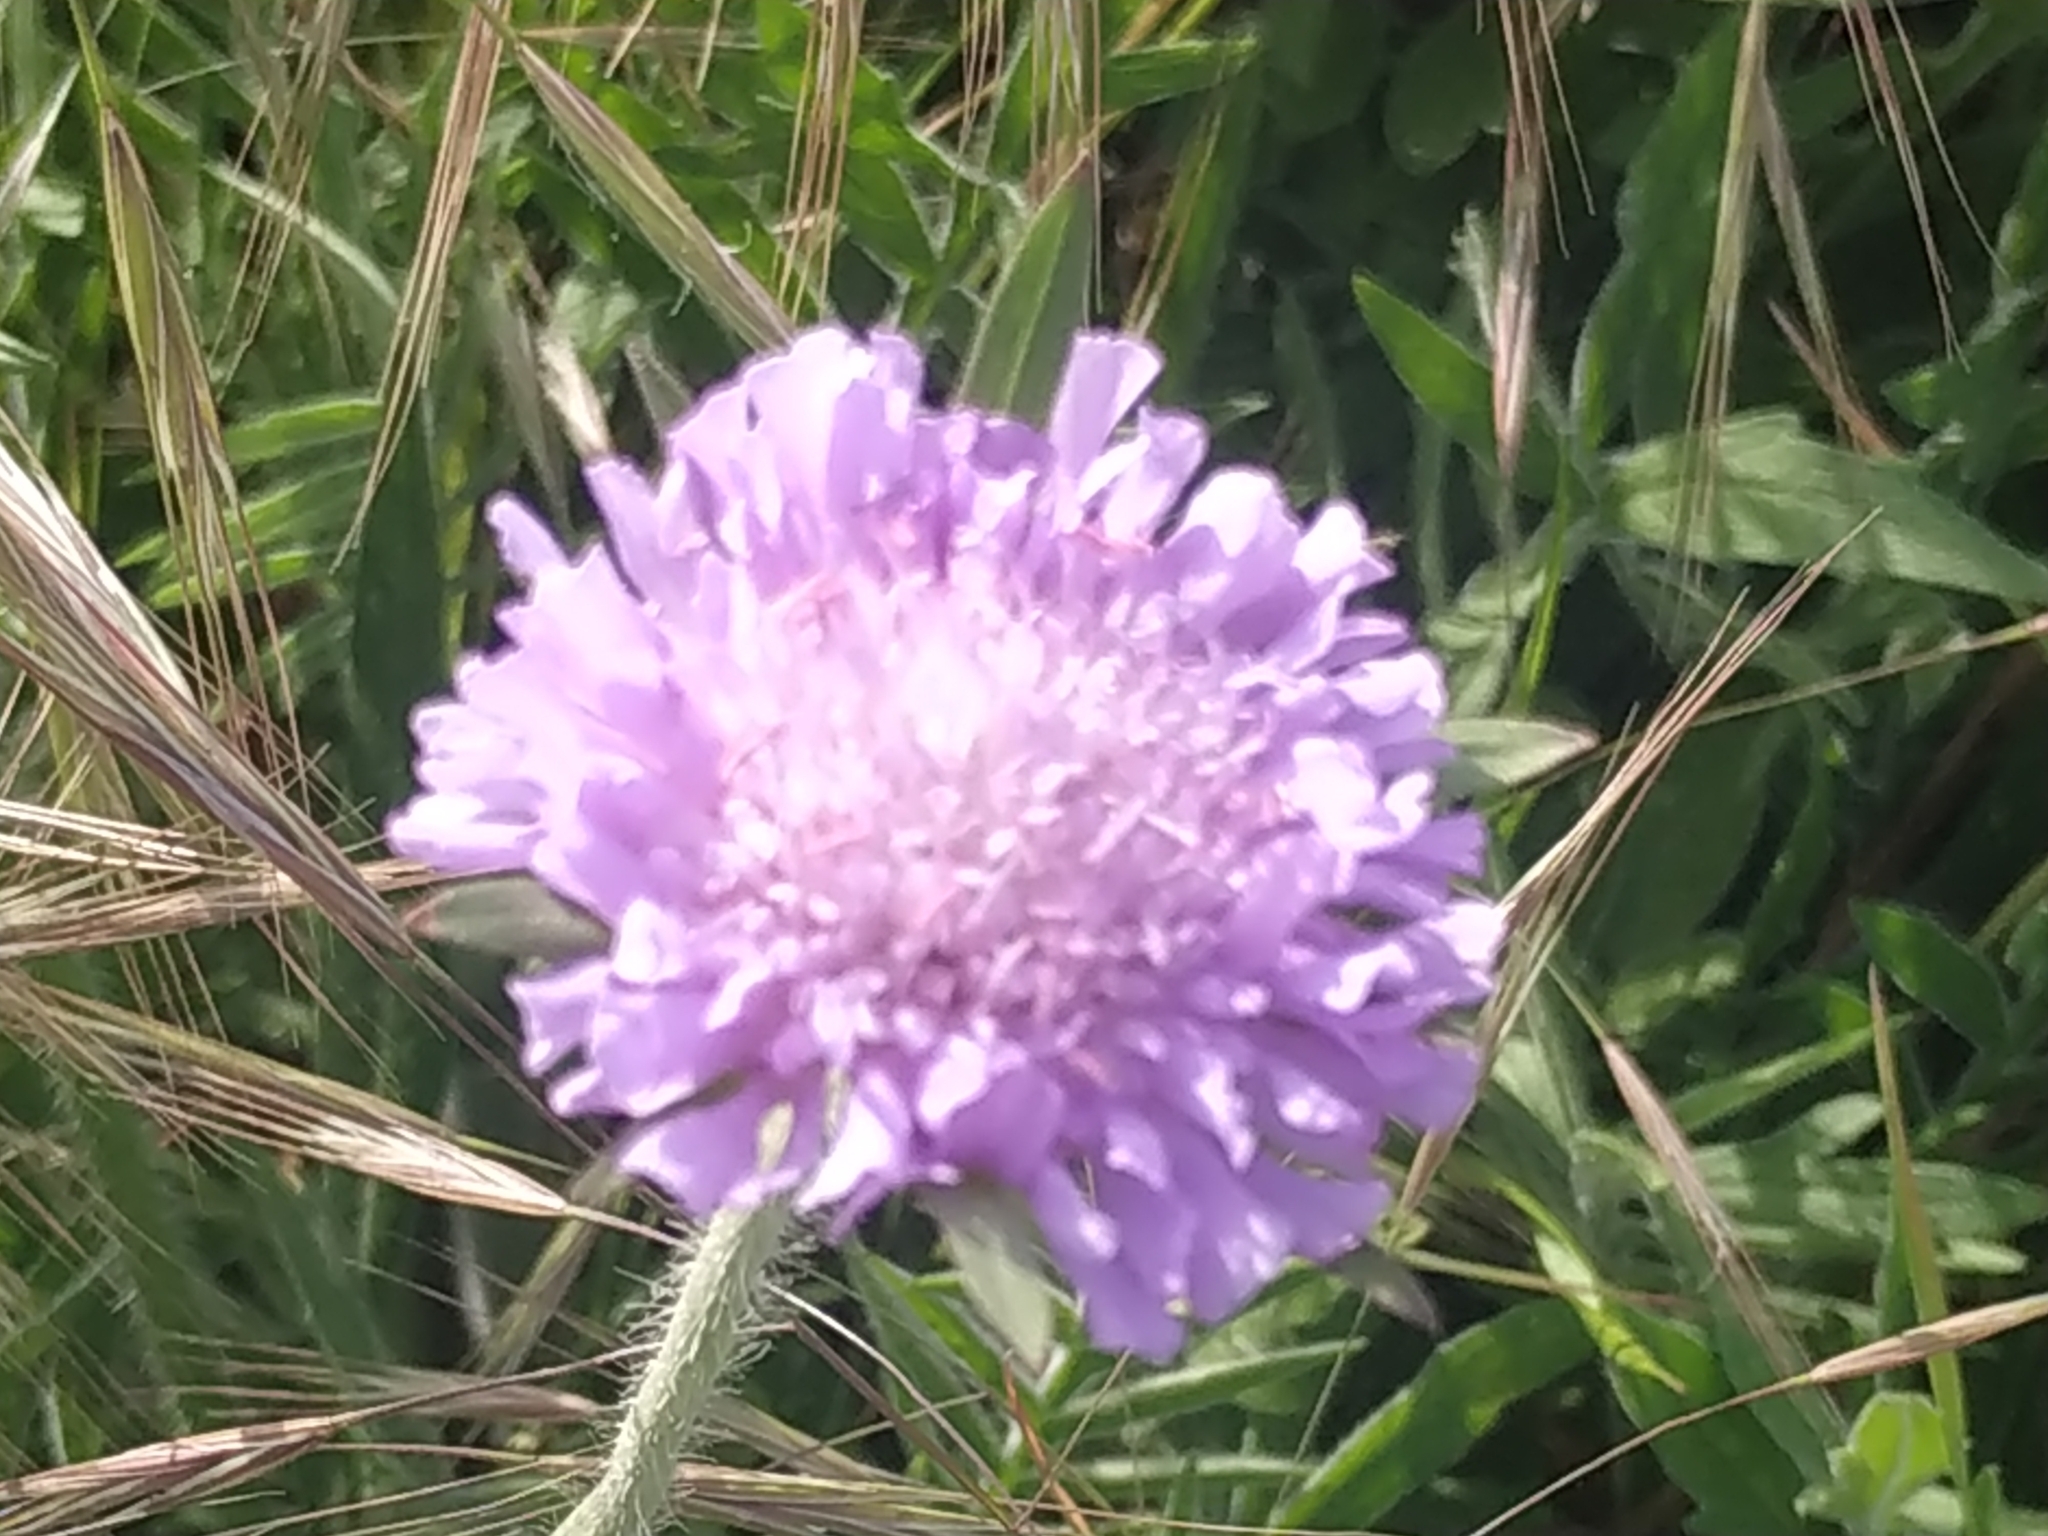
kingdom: Plantae
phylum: Tracheophyta
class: Magnoliopsida
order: Dipsacales
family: Caprifoliaceae
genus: Knautia
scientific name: Knautia arvensis
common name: Field scabiosa
